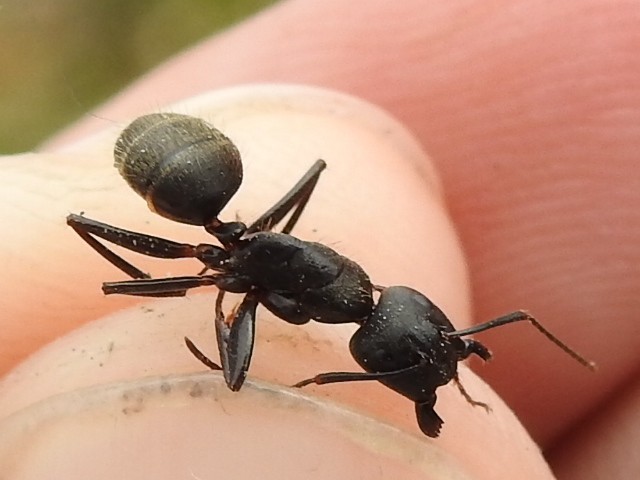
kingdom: Animalia
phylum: Arthropoda
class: Insecta
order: Hymenoptera
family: Formicidae
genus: Camponotus
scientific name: Camponotus pennsylvanicus
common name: Black carpenter ant
